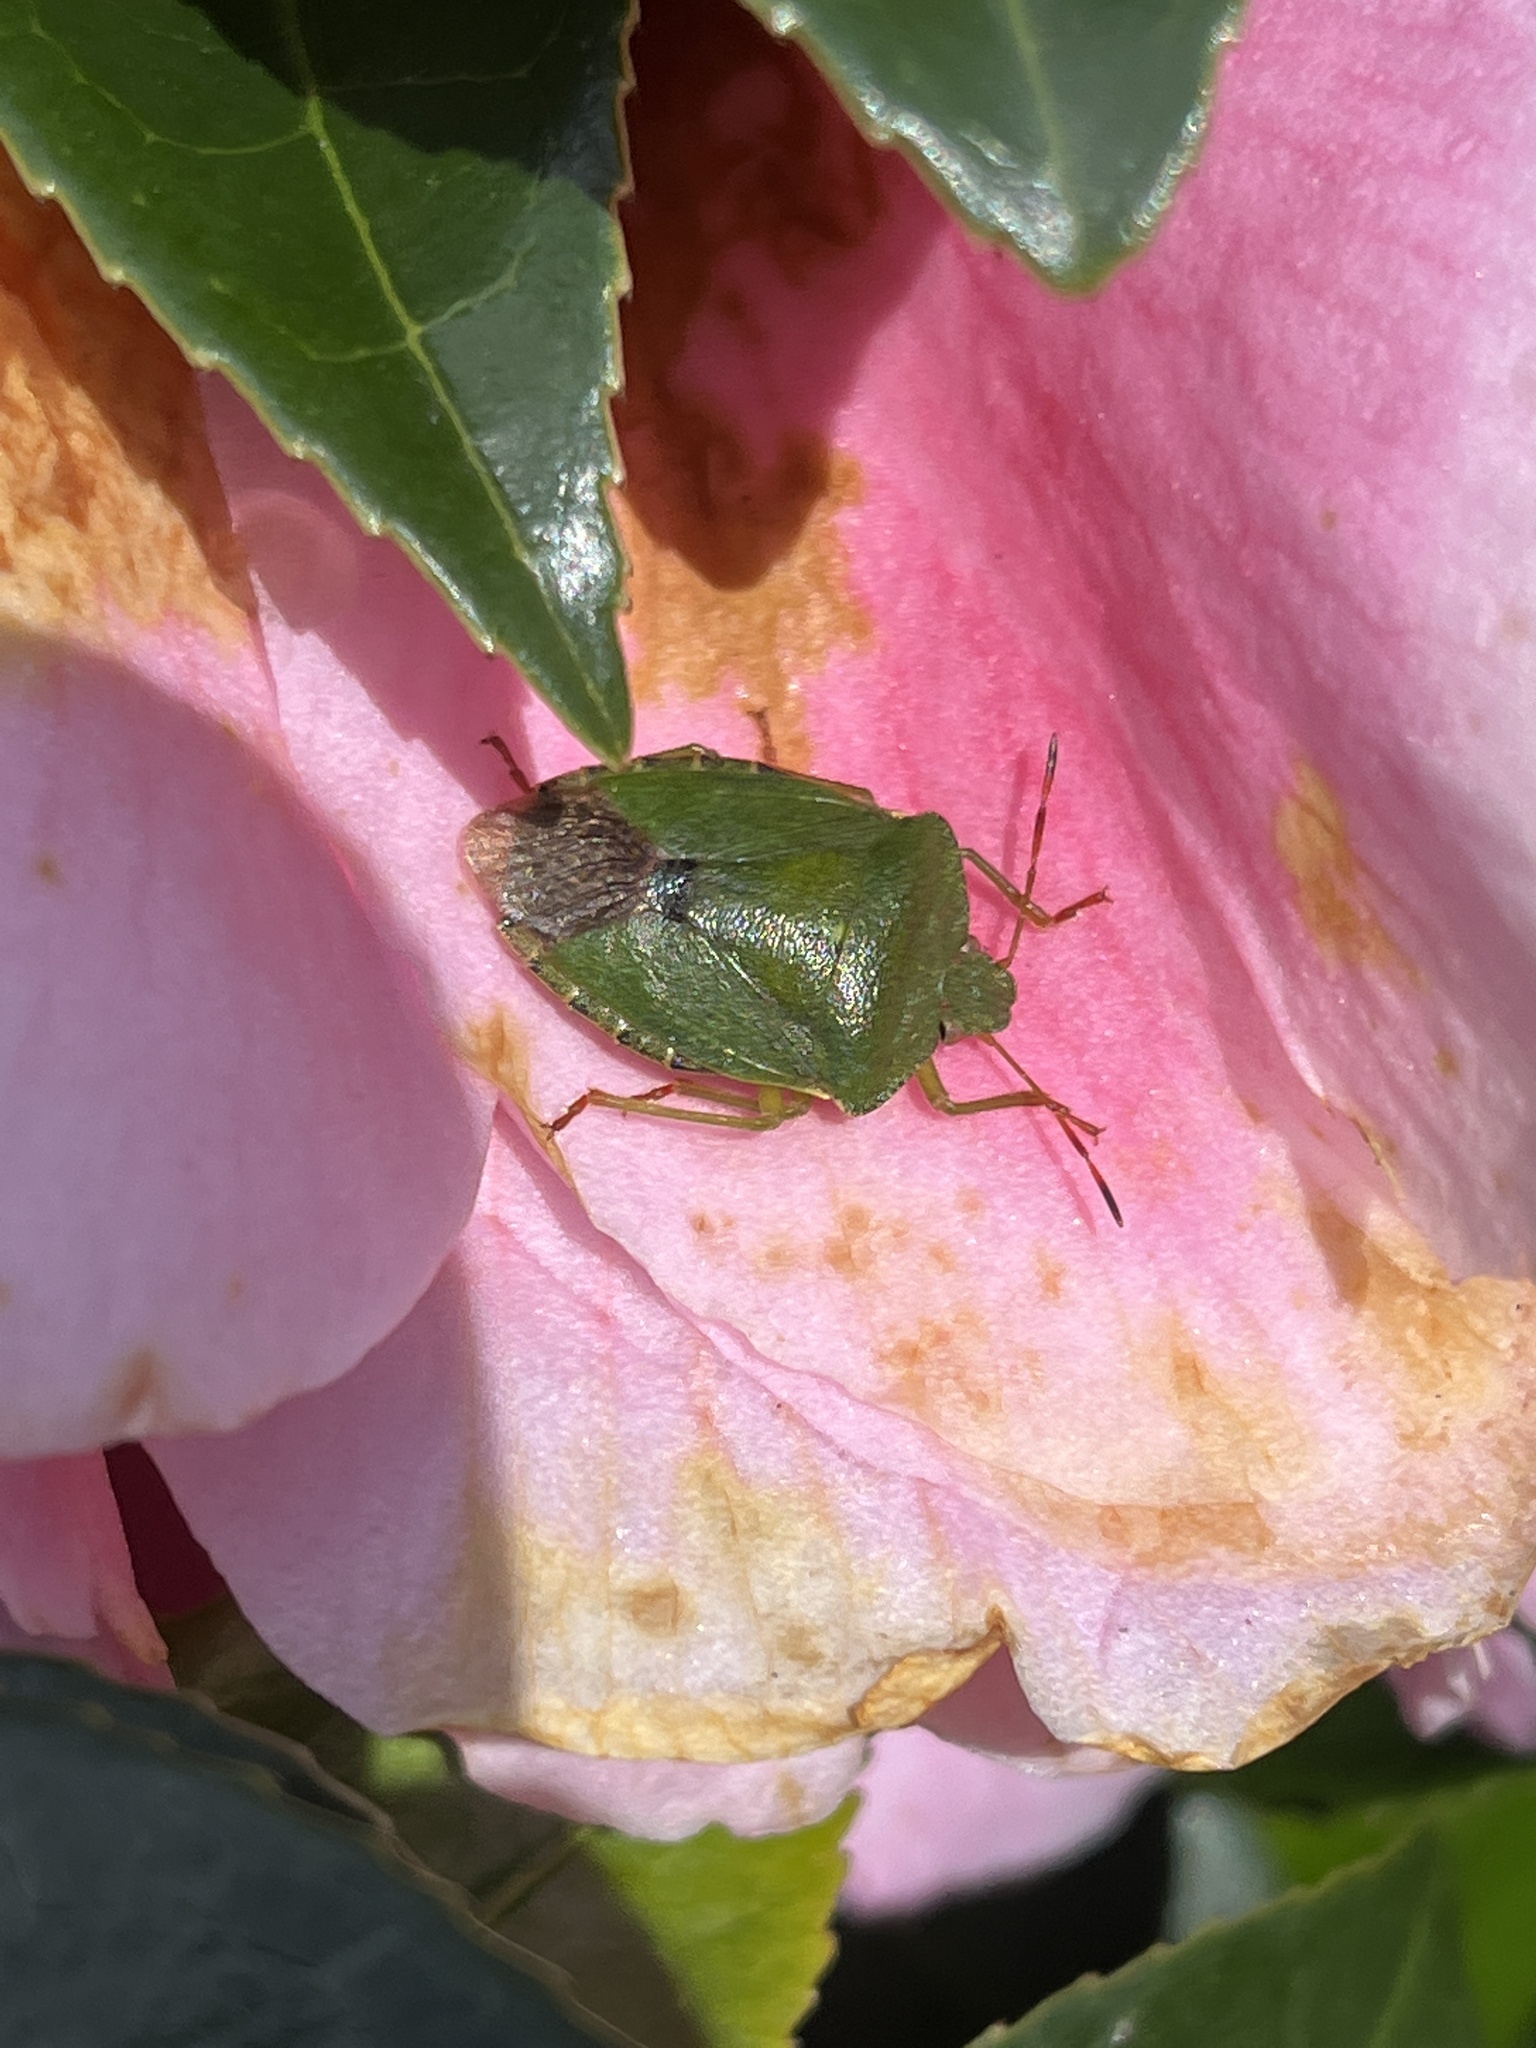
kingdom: Animalia
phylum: Arthropoda
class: Insecta
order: Hemiptera
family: Pentatomidae
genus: Palomena
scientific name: Palomena prasina
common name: Green shieldbug
